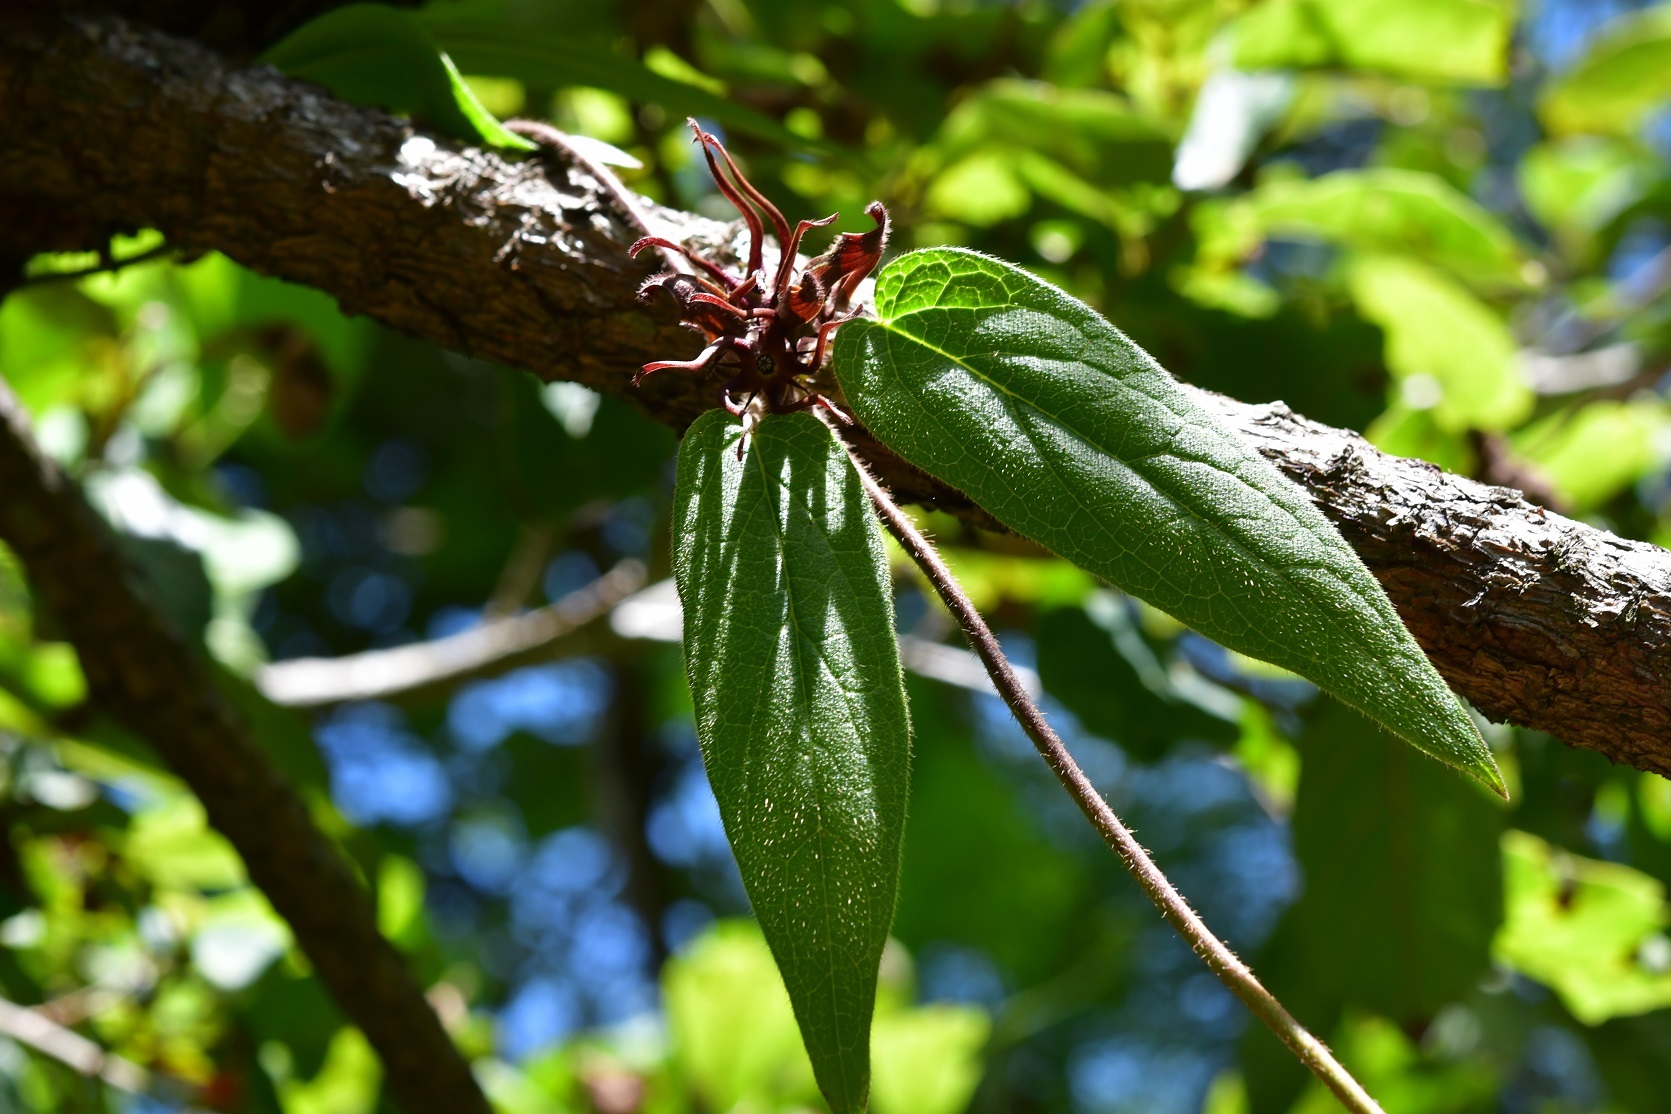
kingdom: Plantae
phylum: Tracheophyta
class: Magnoliopsida
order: Gentianales
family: Apocynaceae
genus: Matelea
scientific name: Matelea medusae
